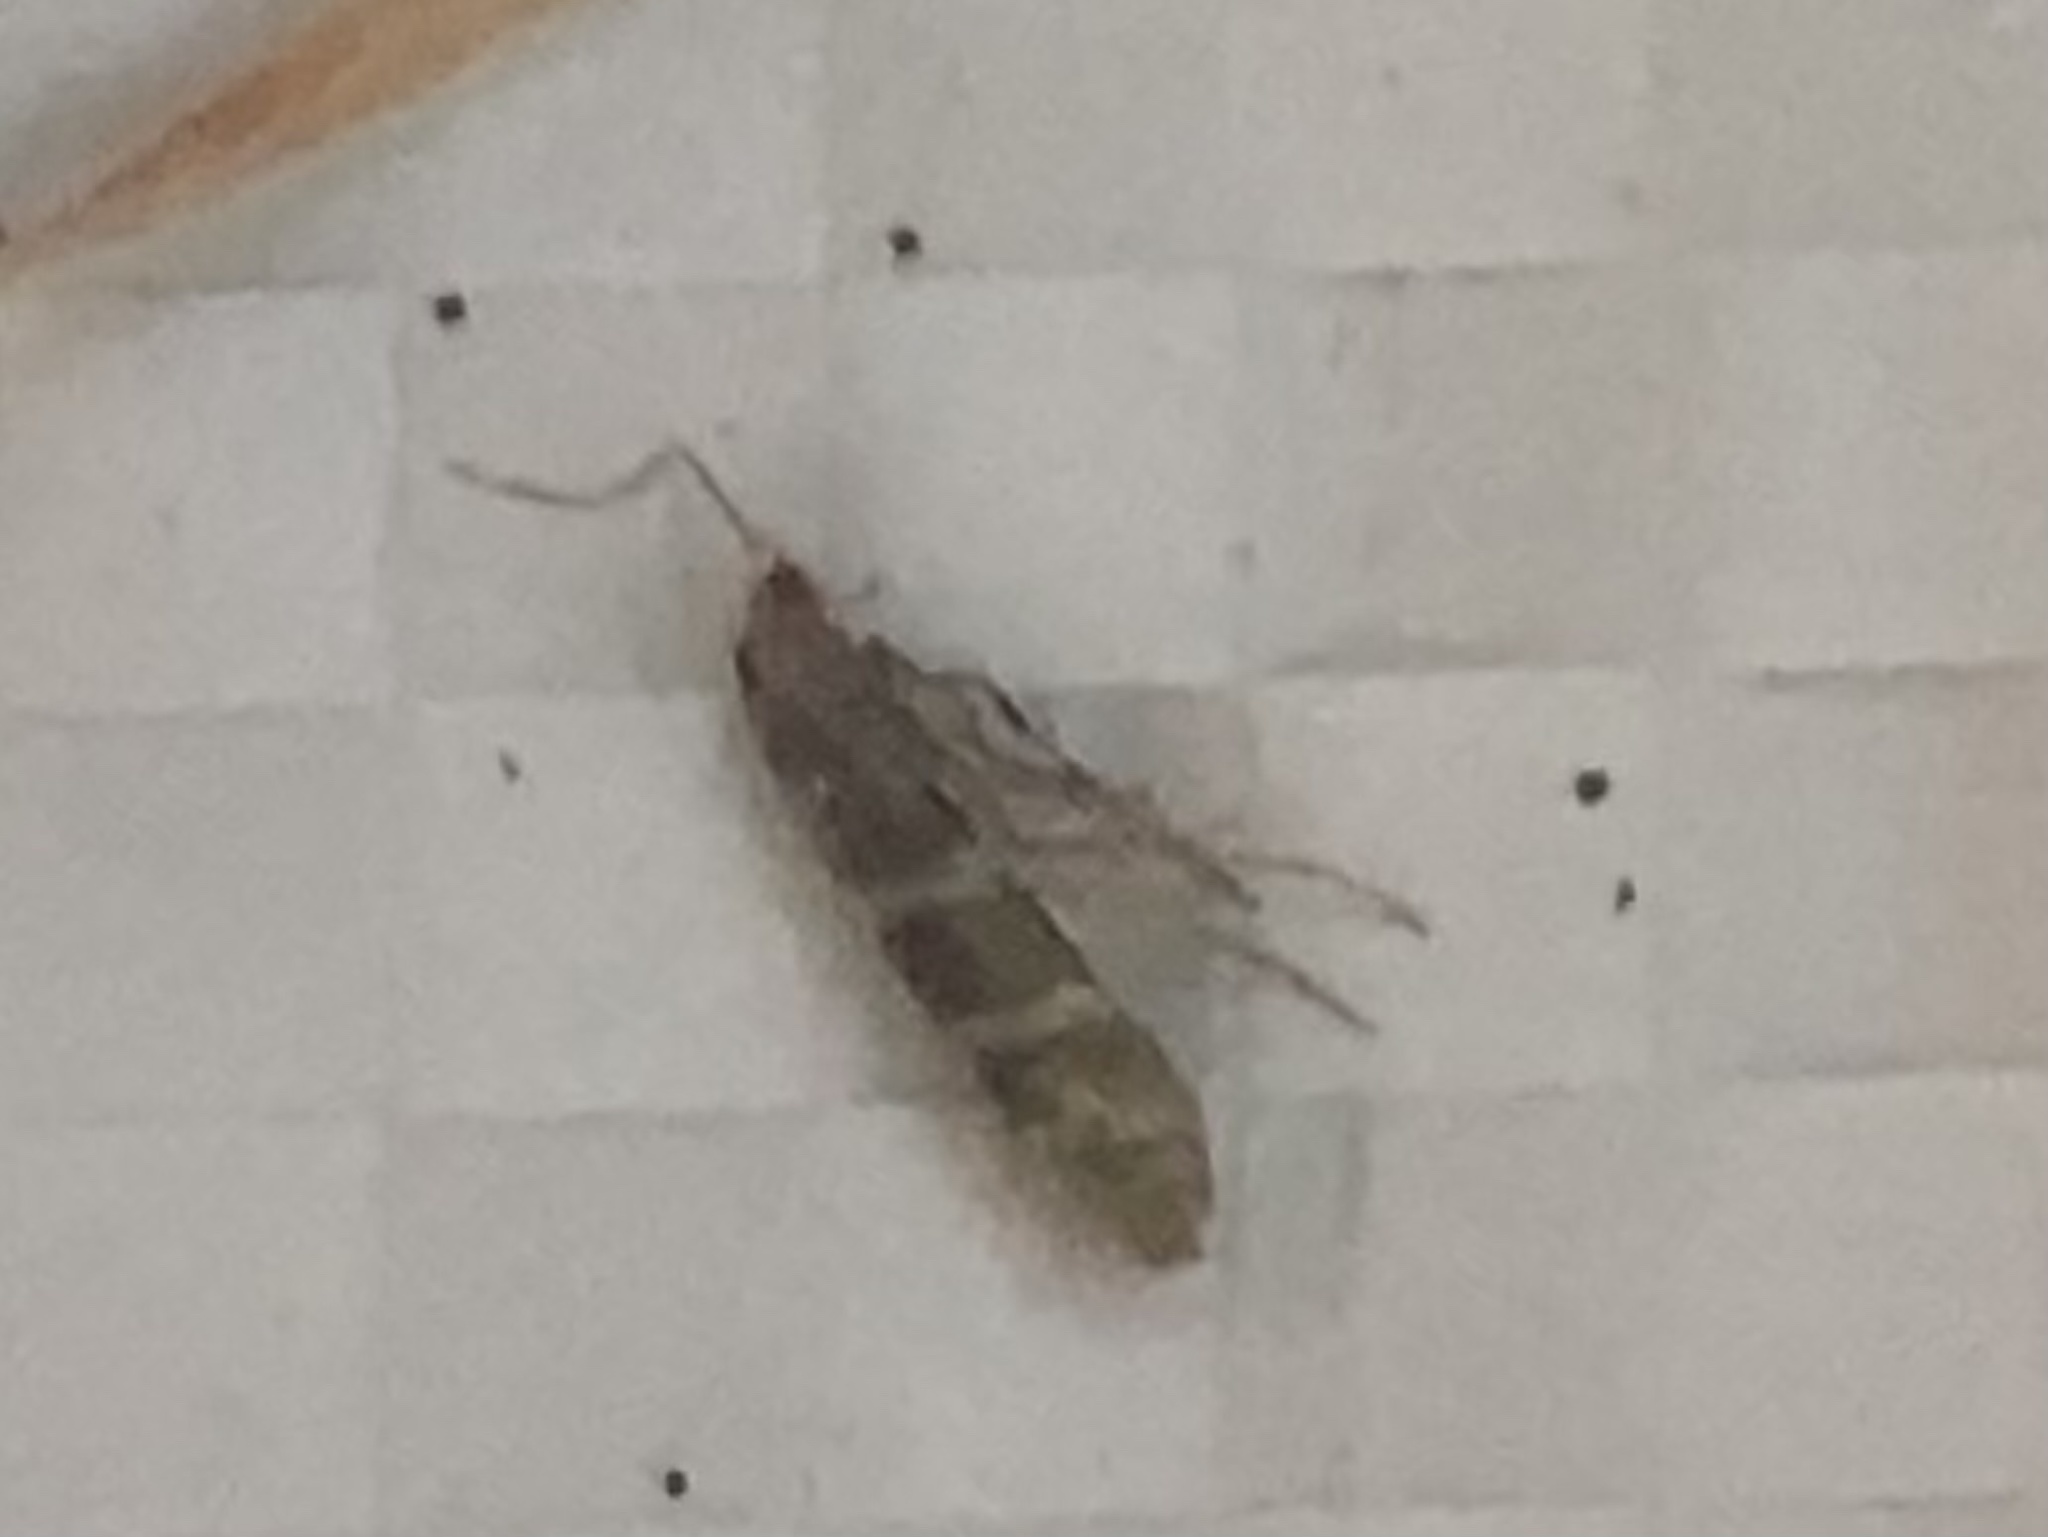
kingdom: Animalia
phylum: Arthropoda
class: Insecta
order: Lepidoptera
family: Argyresthiidae
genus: Argyresthia
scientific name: Argyresthia trifasciata
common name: Triple-barred argent
